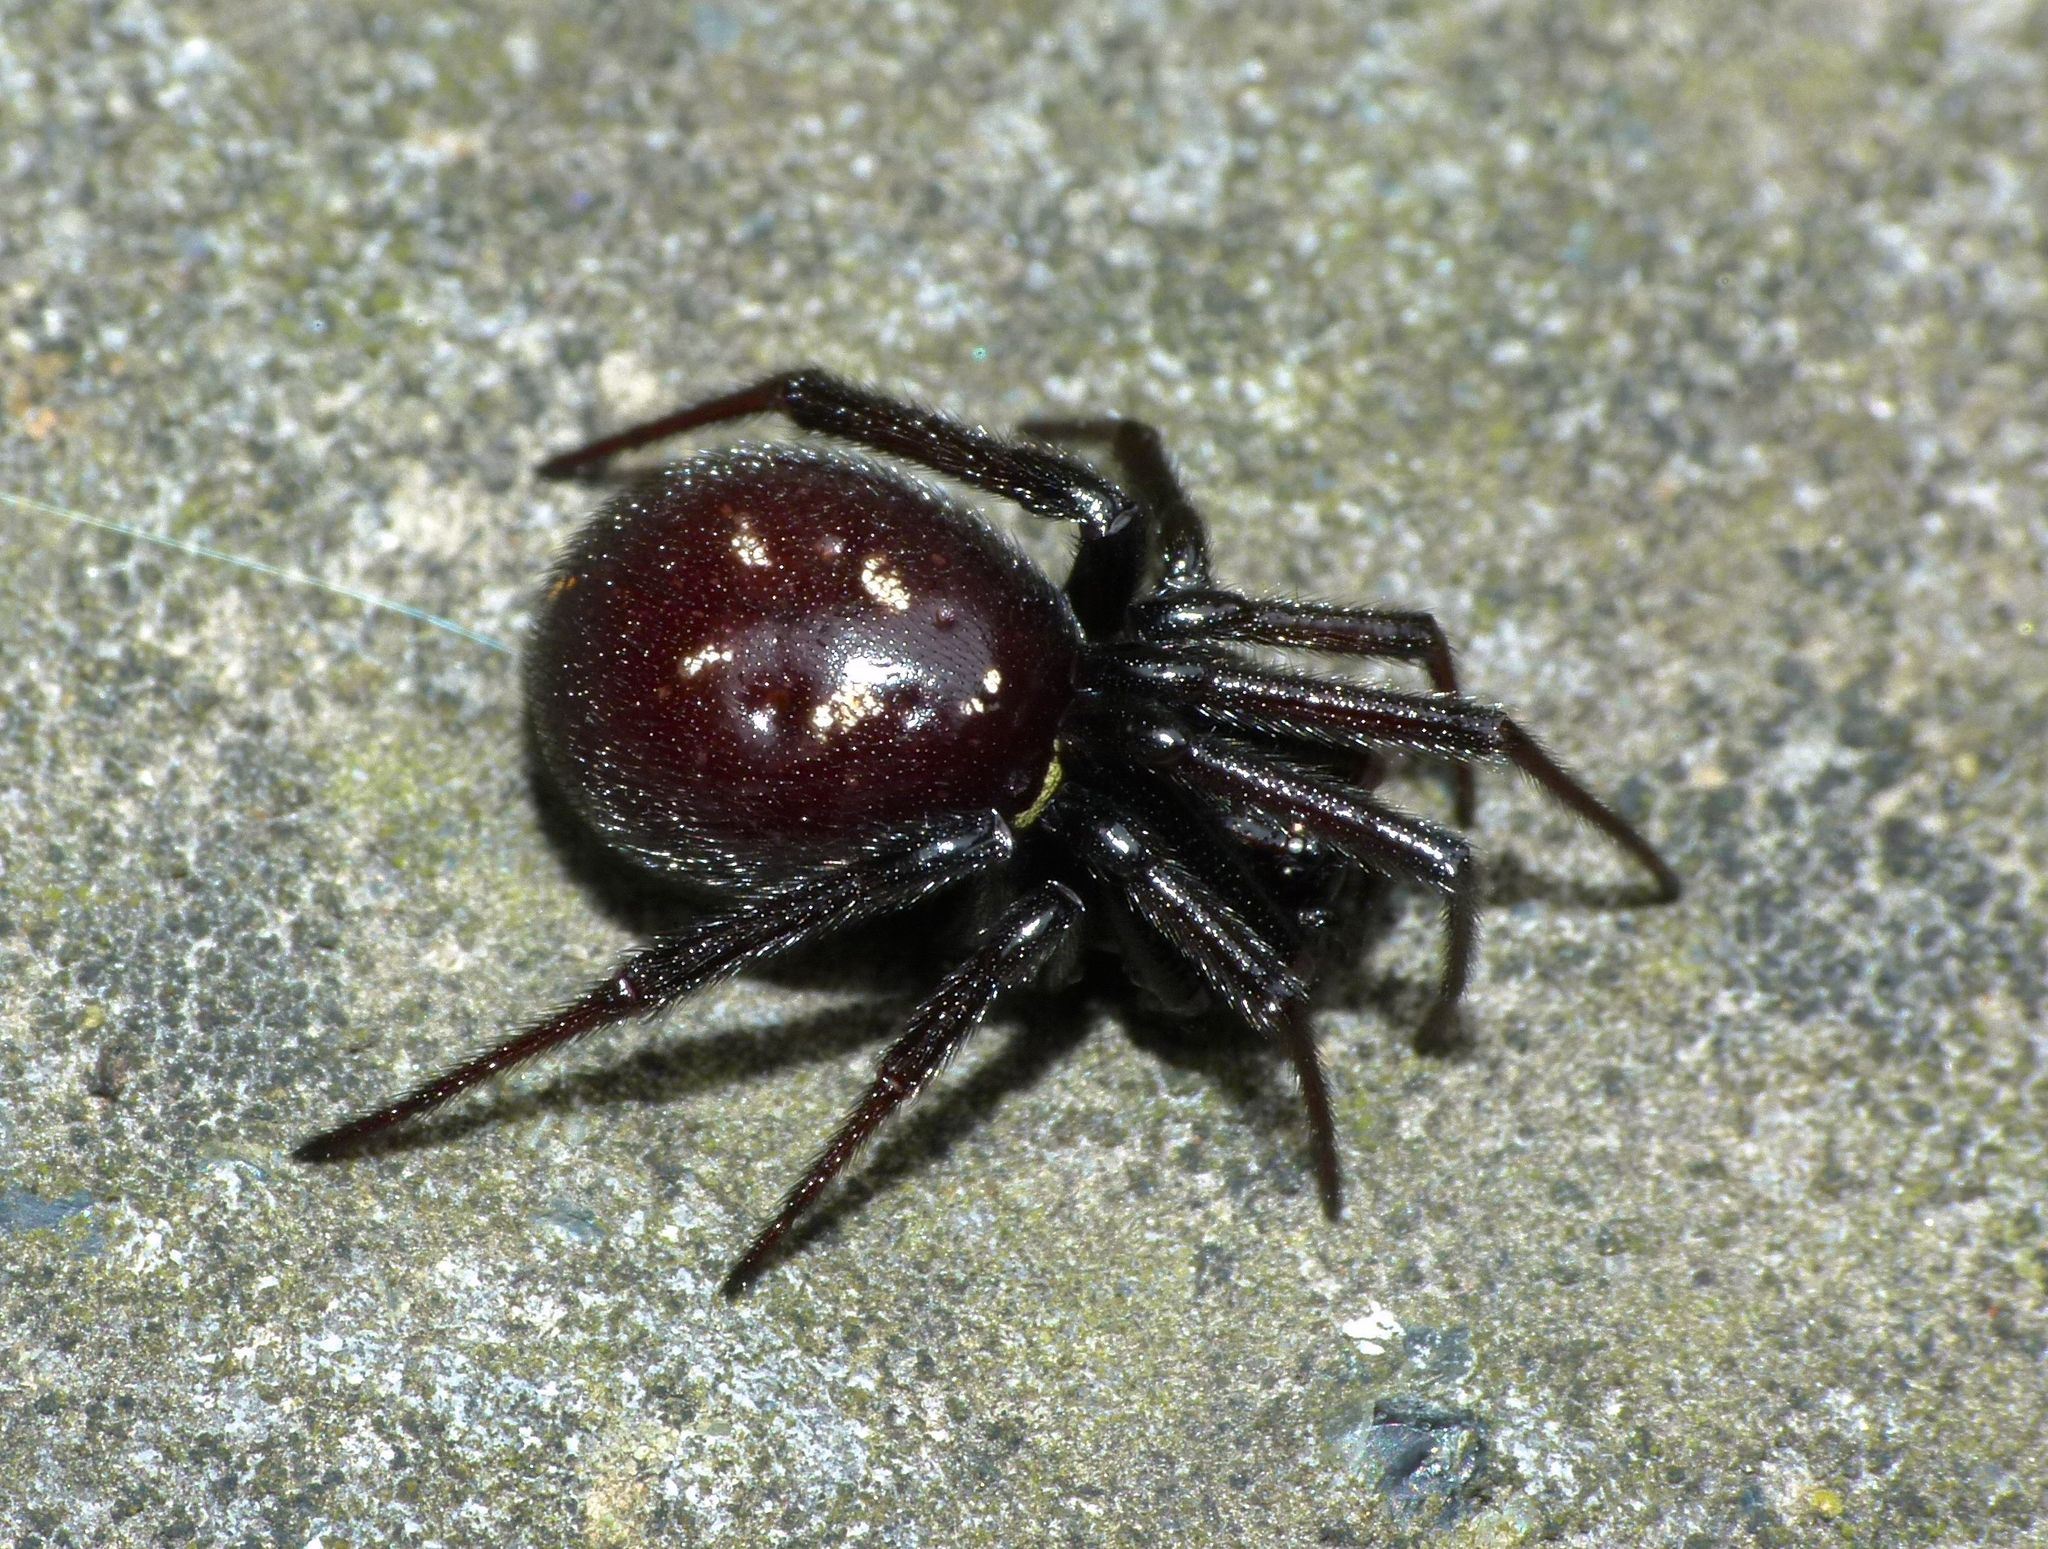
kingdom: Animalia
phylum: Arthropoda
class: Arachnida
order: Araneae
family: Theridiidae
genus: Steatoda
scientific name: Steatoda capensis
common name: Cobweb weaver
